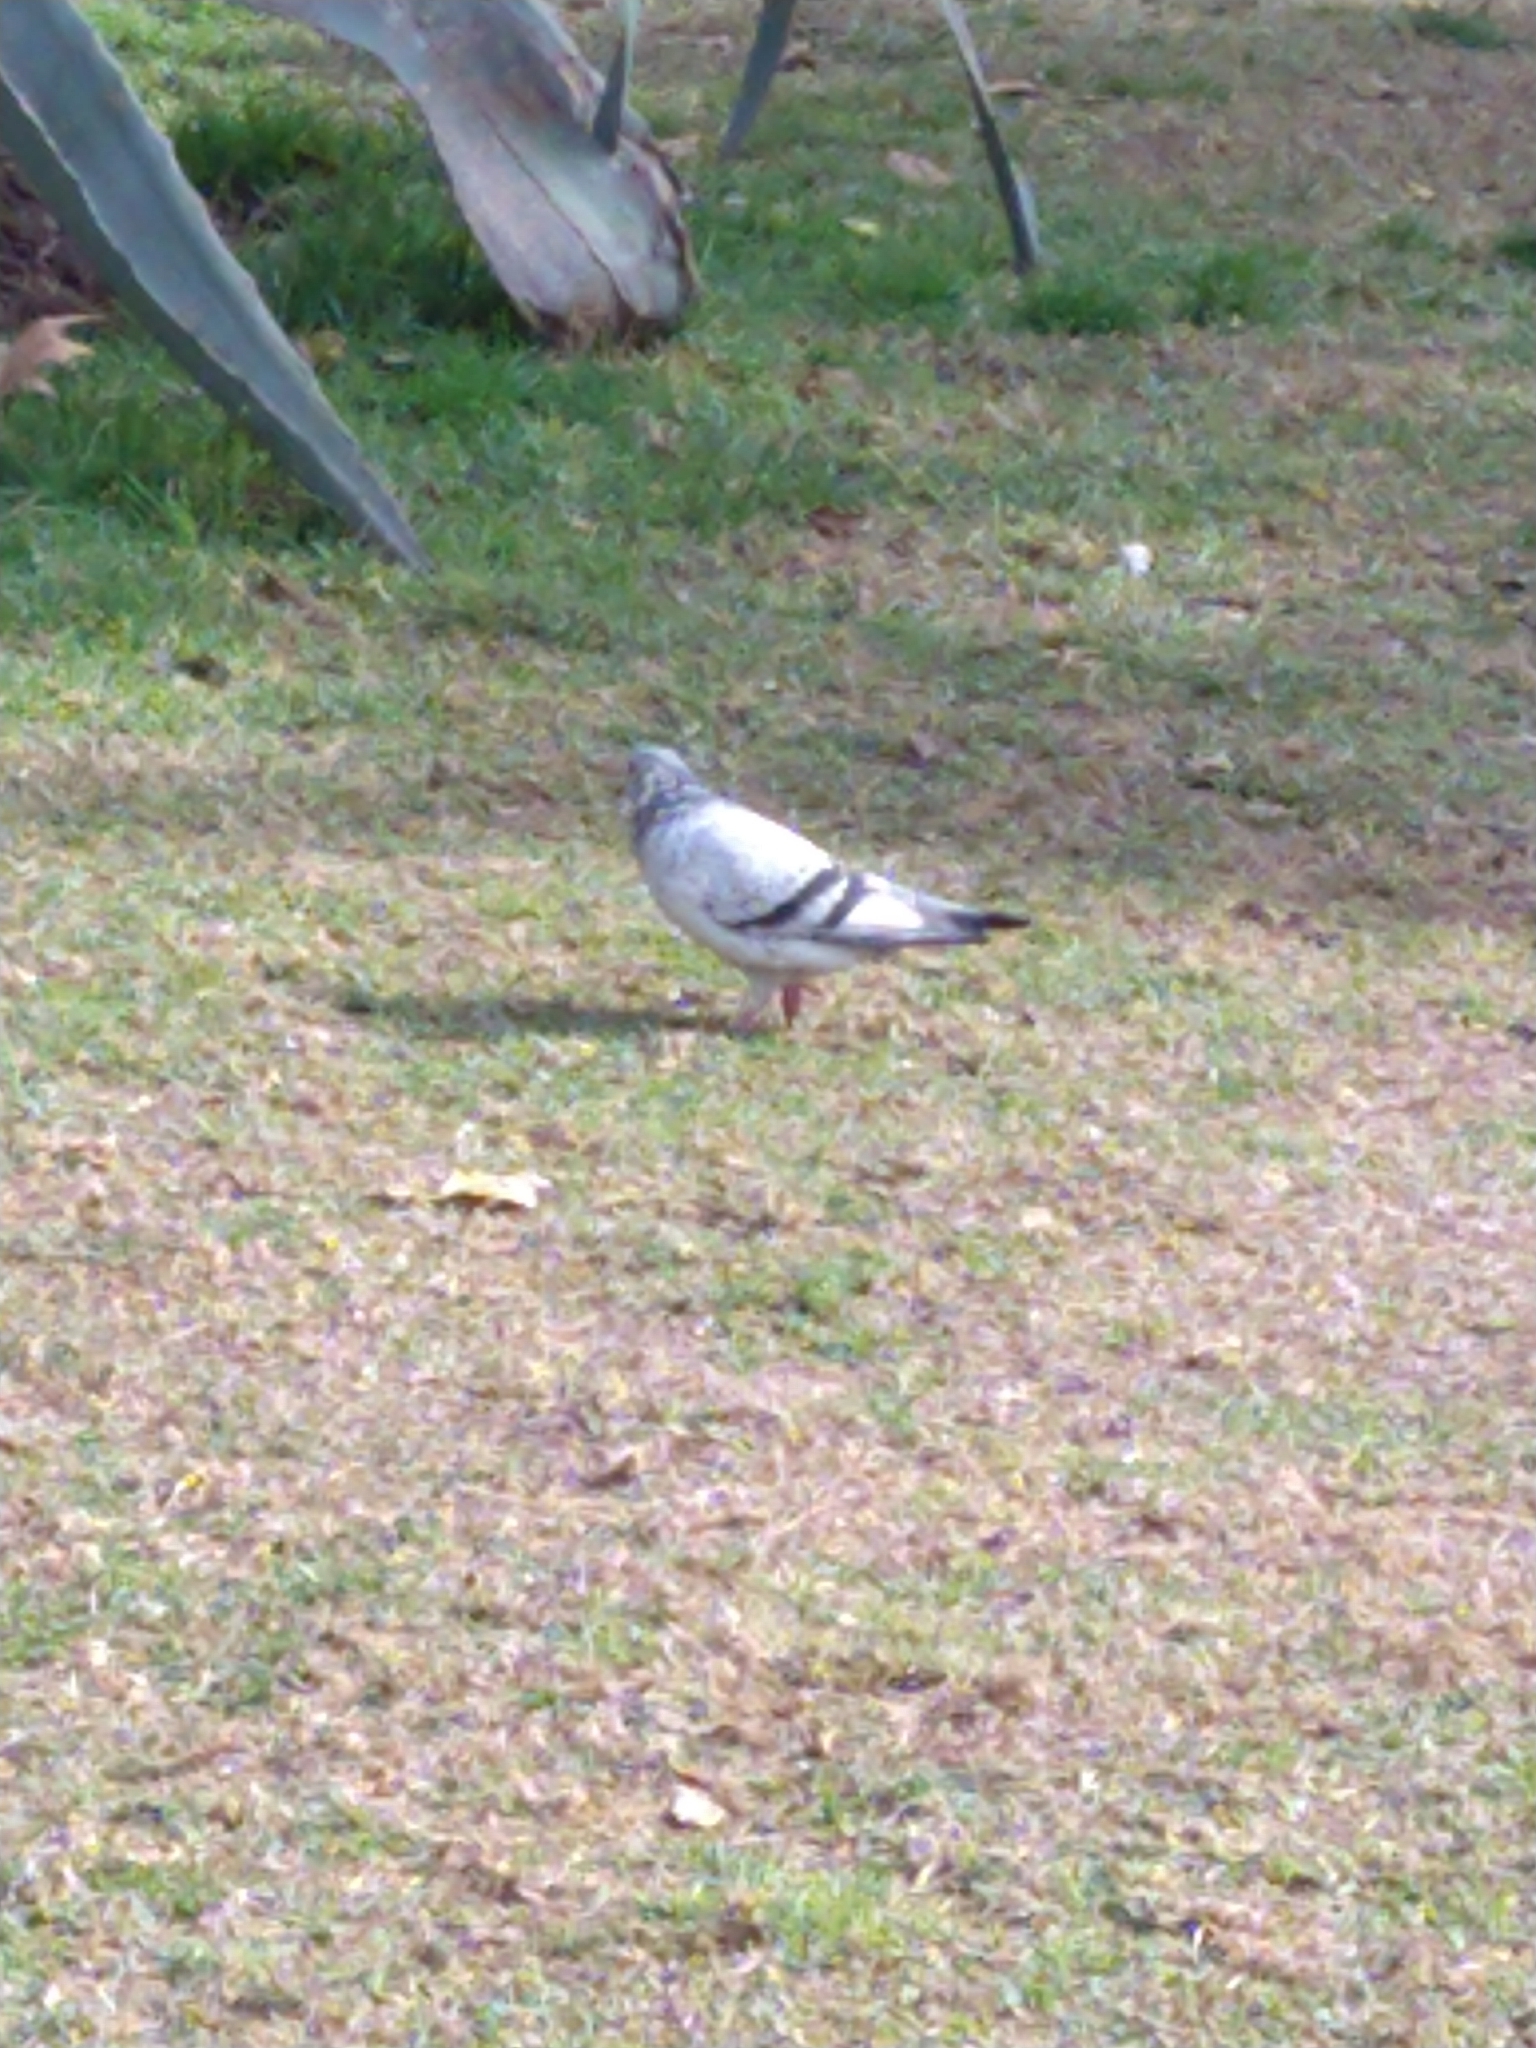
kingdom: Animalia
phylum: Chordata
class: Aves
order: Columbiformes
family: Columbidae
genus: Columba
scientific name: Columba livia
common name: Rock pigeon
